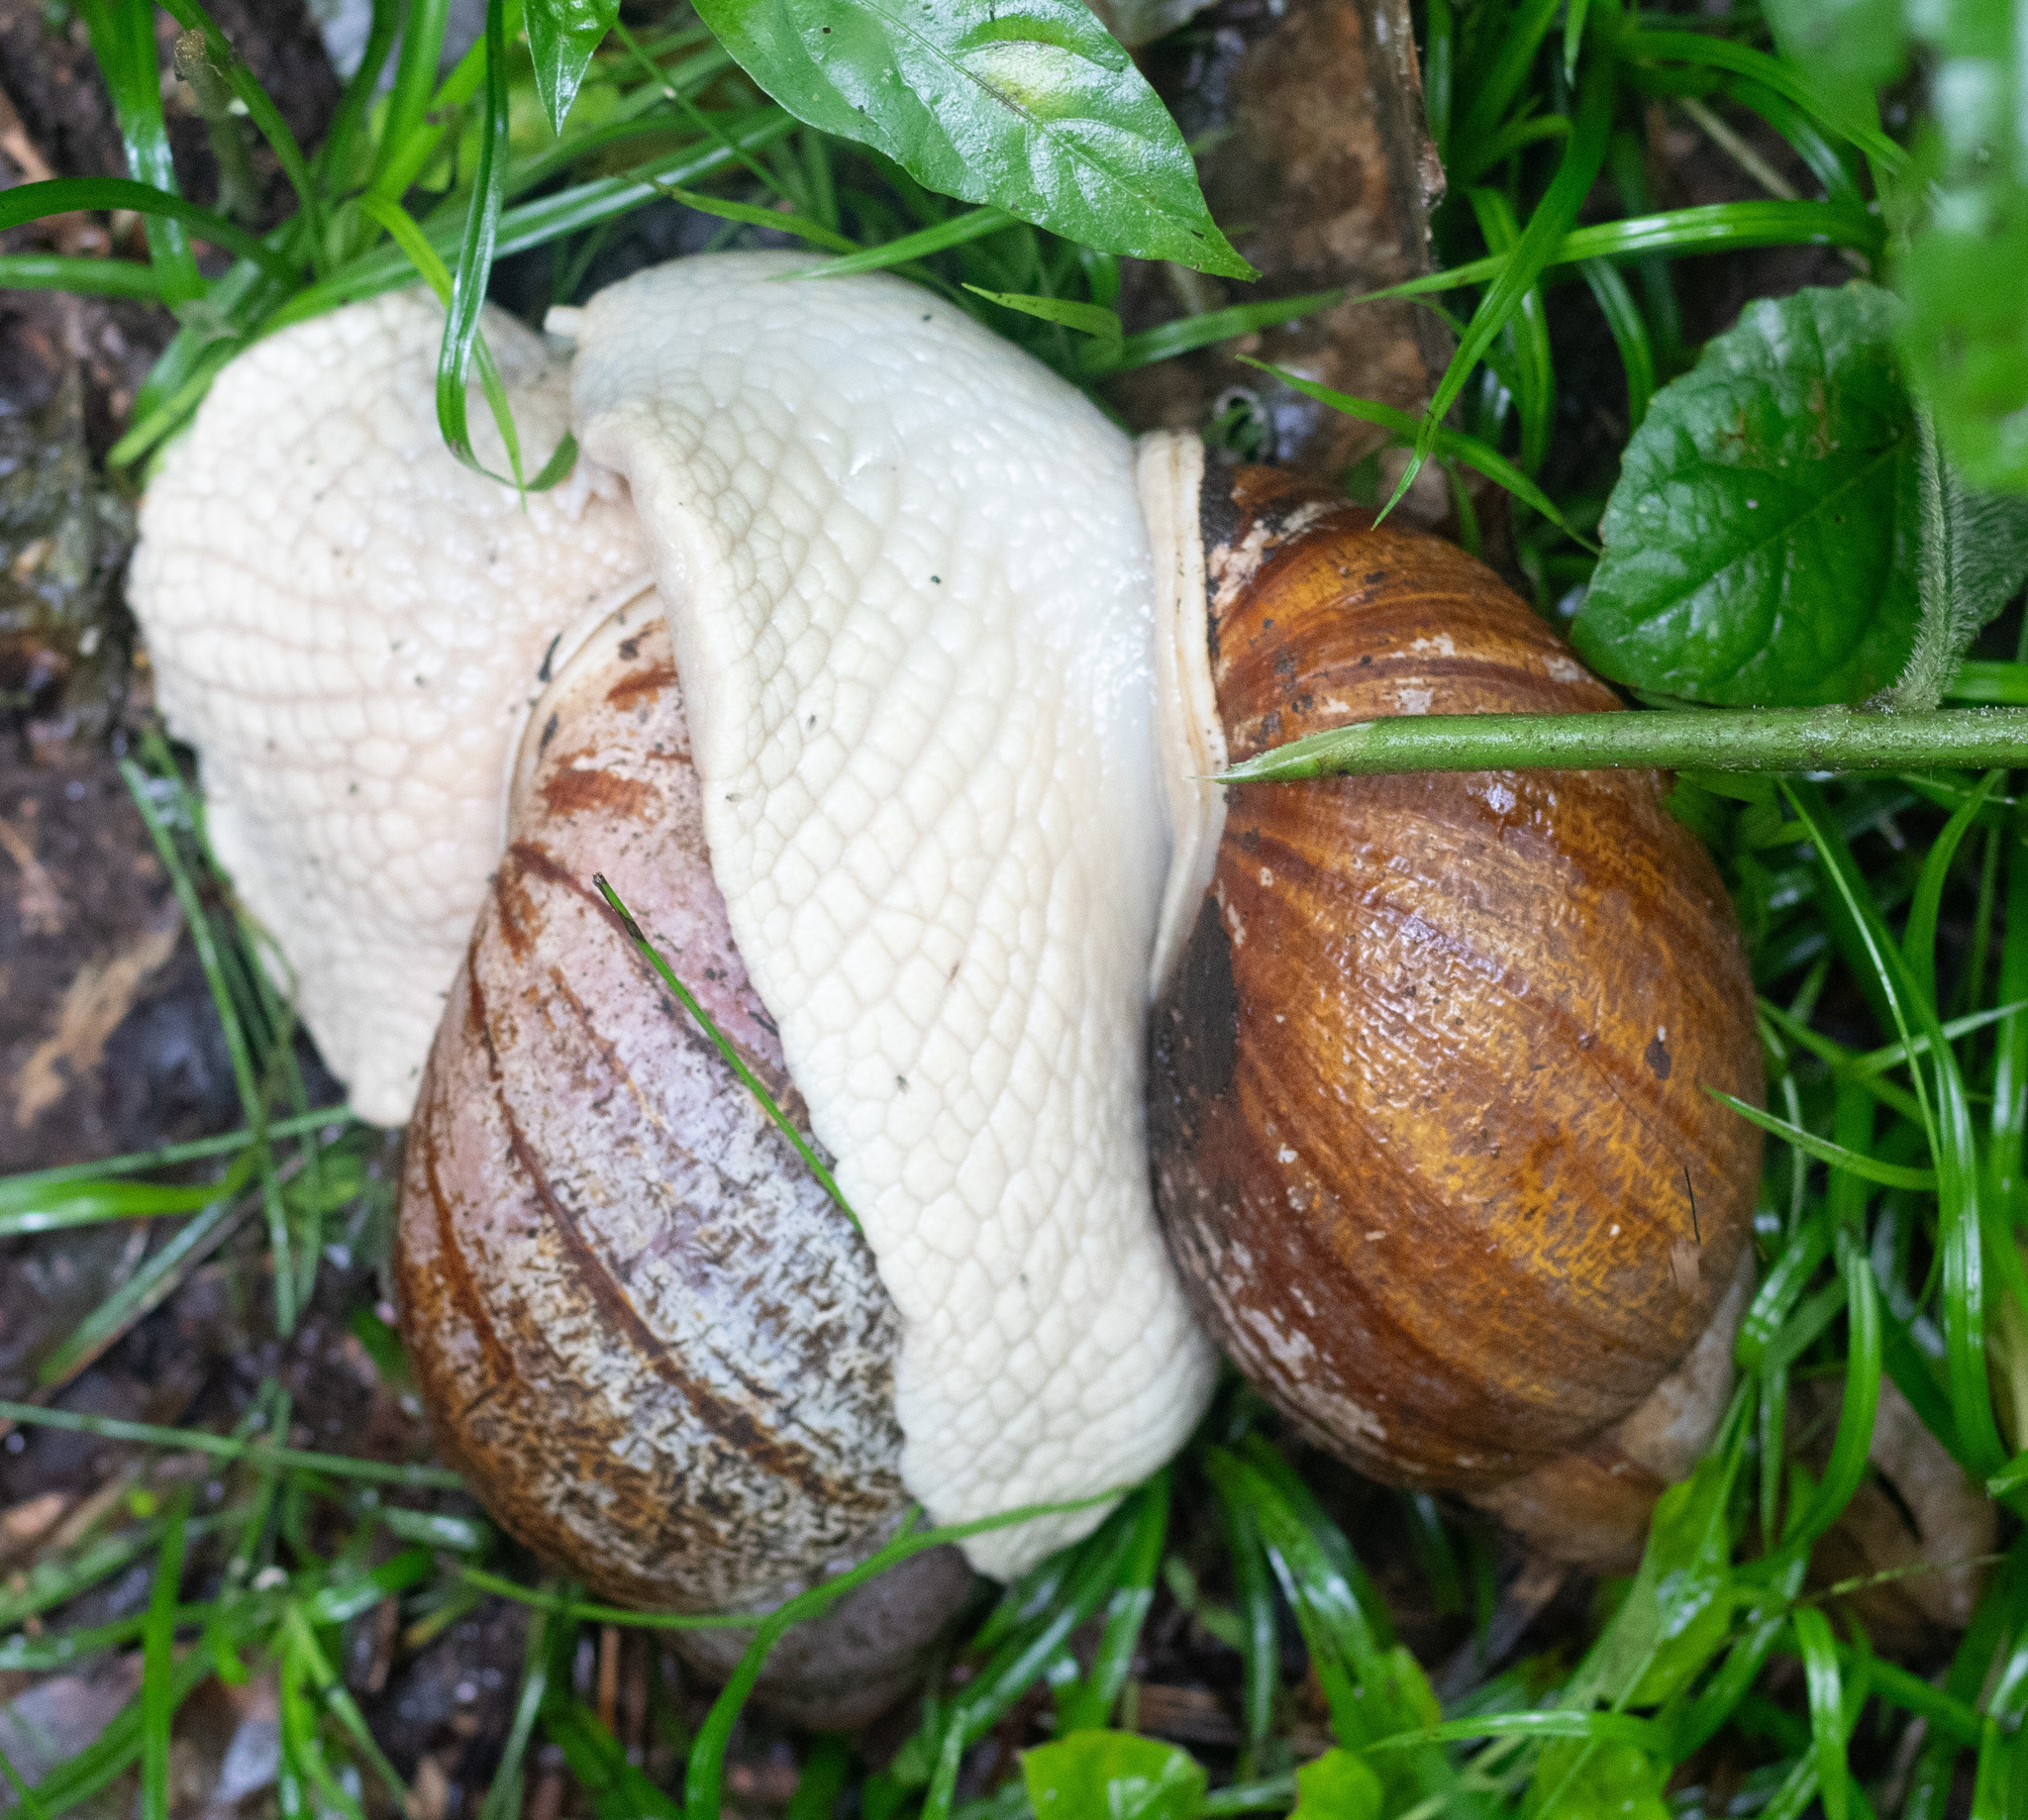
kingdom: Animalia
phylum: Mollusca
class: Gastropoda
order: Stylommatophora
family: Strophocheilidae
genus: Megalobulimus
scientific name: Megalobulimus dryades
